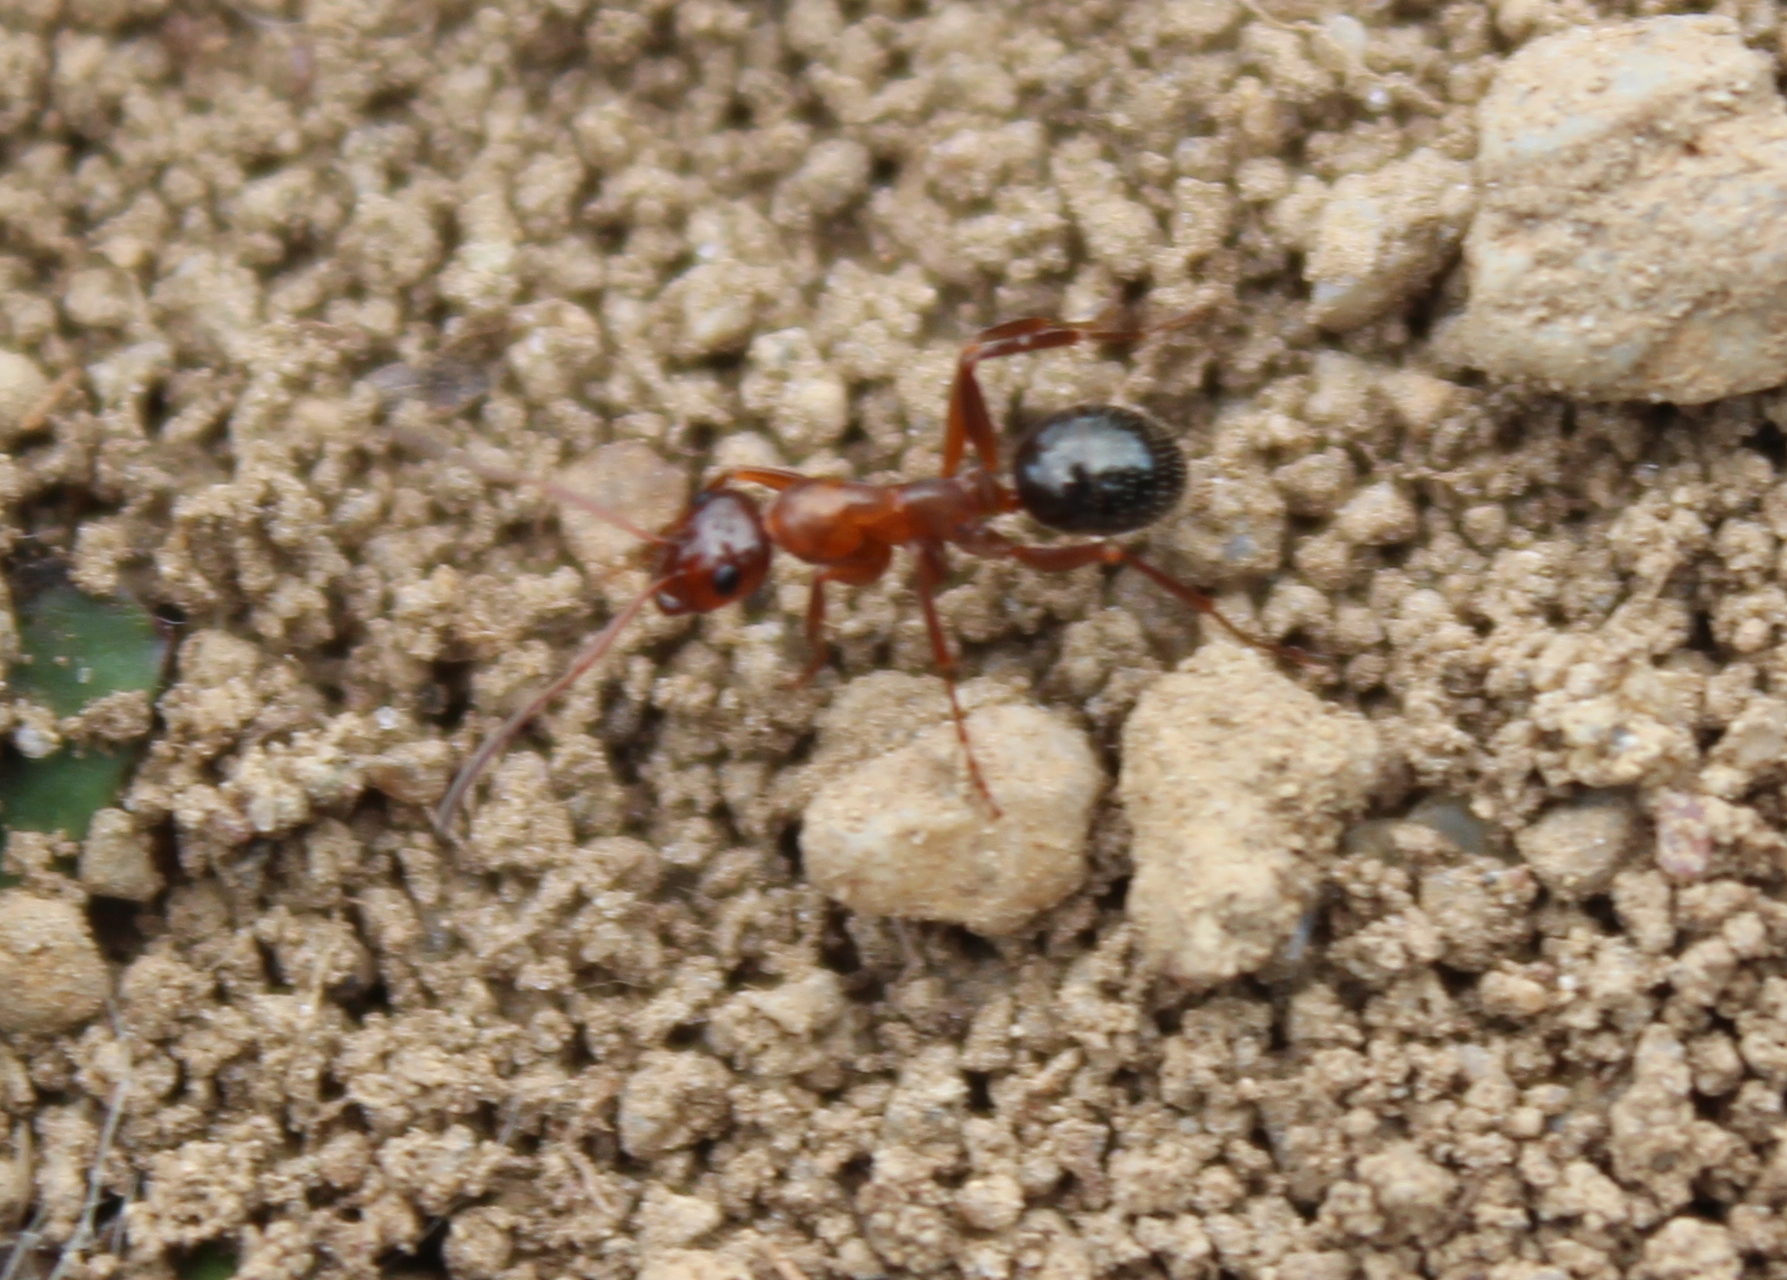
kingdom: Animalia
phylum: Arthropoda
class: Insecta
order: Hymenoptera
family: Formicidae
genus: Formica
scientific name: Formica
